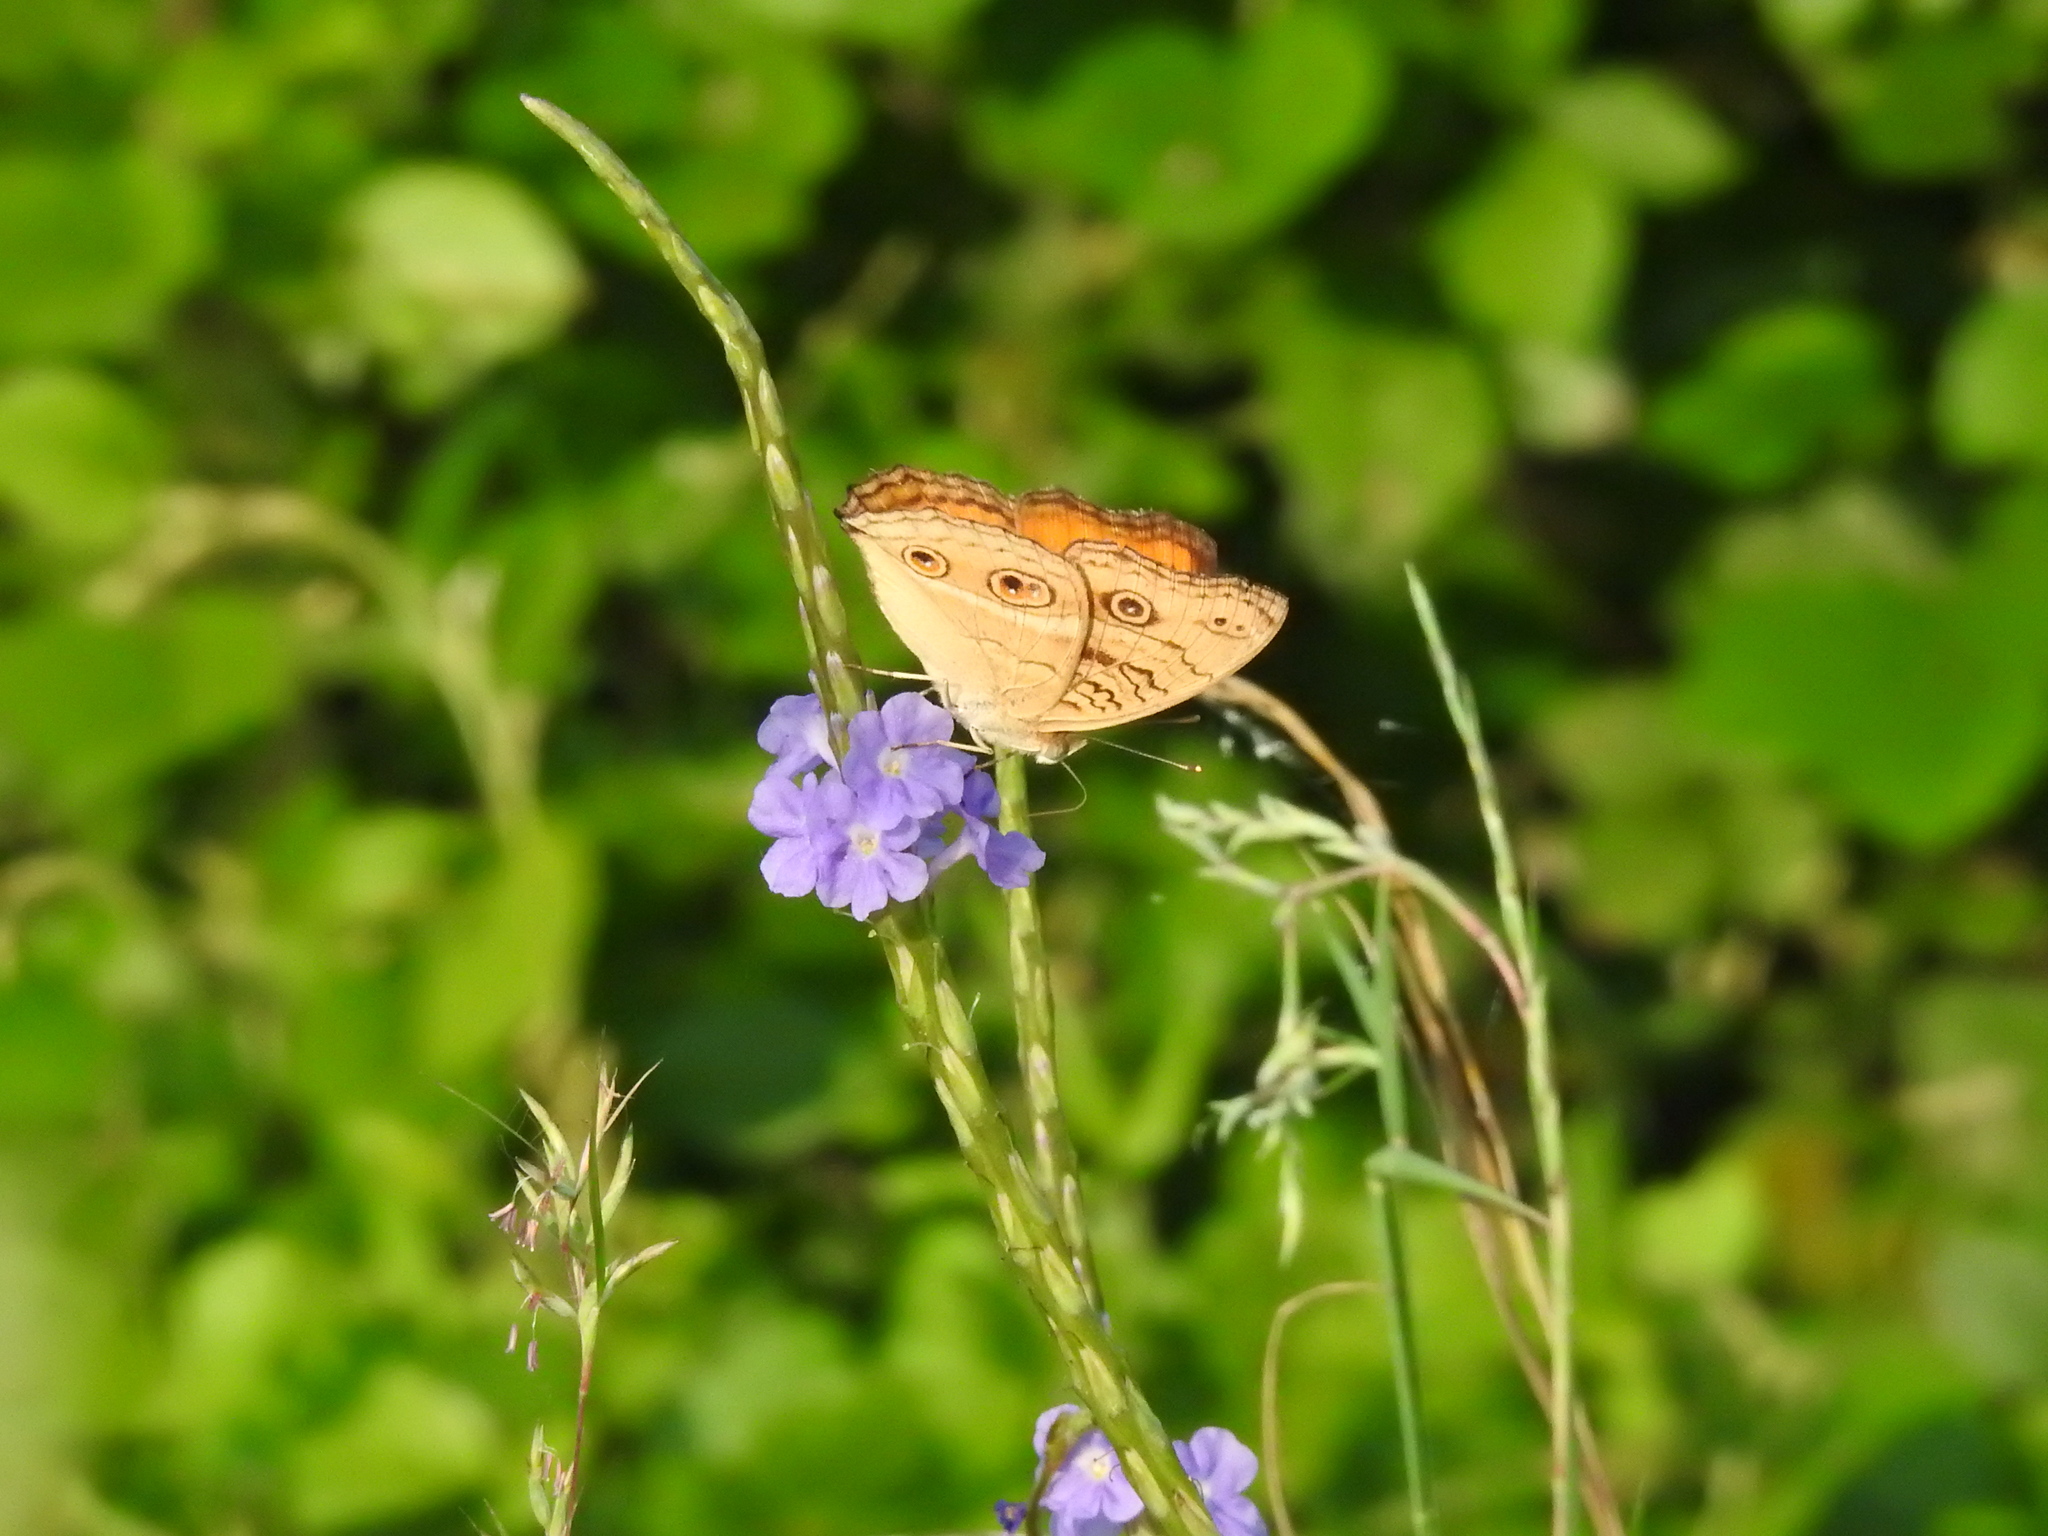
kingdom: Animalia
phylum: Arthropoda
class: Insecta
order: Lepidoptera
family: Nymphalidae
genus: Junonia
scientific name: Junonia almana
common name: Peacock pansy
